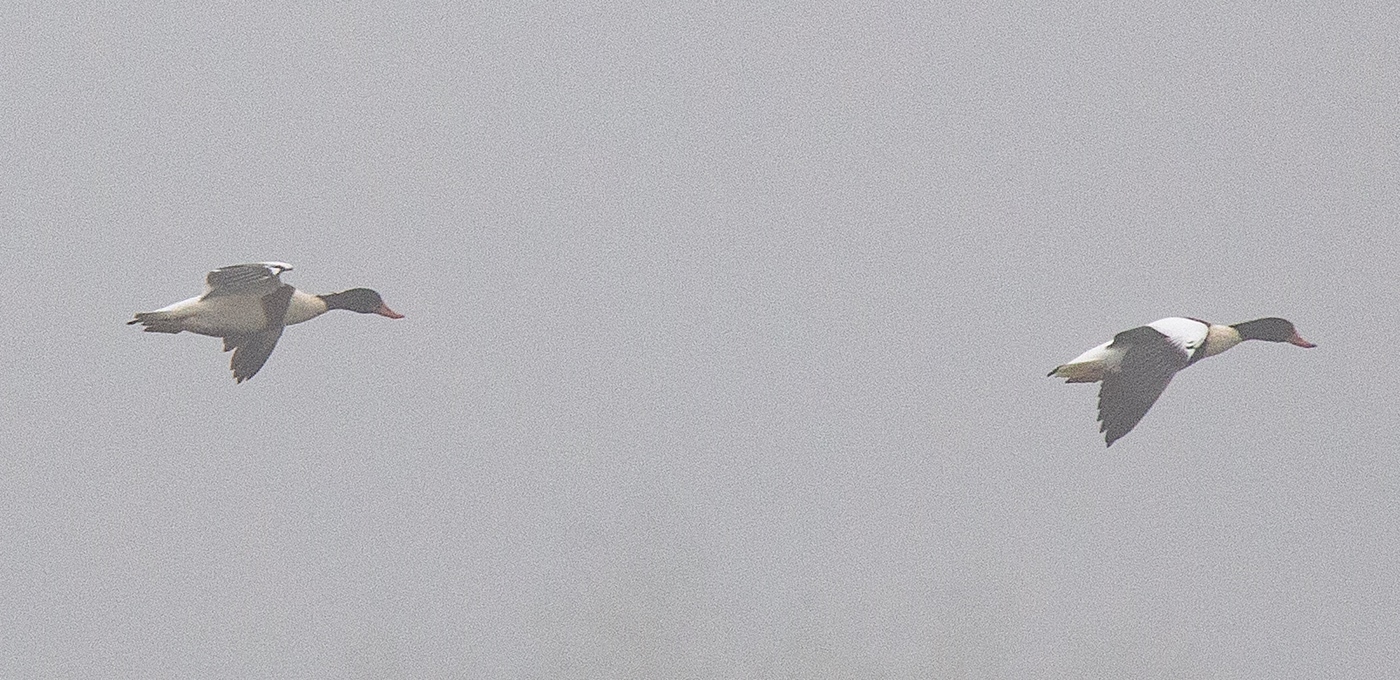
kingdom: Animalia
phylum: Chordata
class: Aves
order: Anseriformes
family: Anatidae
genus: Tadorna
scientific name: Tadorna tadorna
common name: Common shelduck
